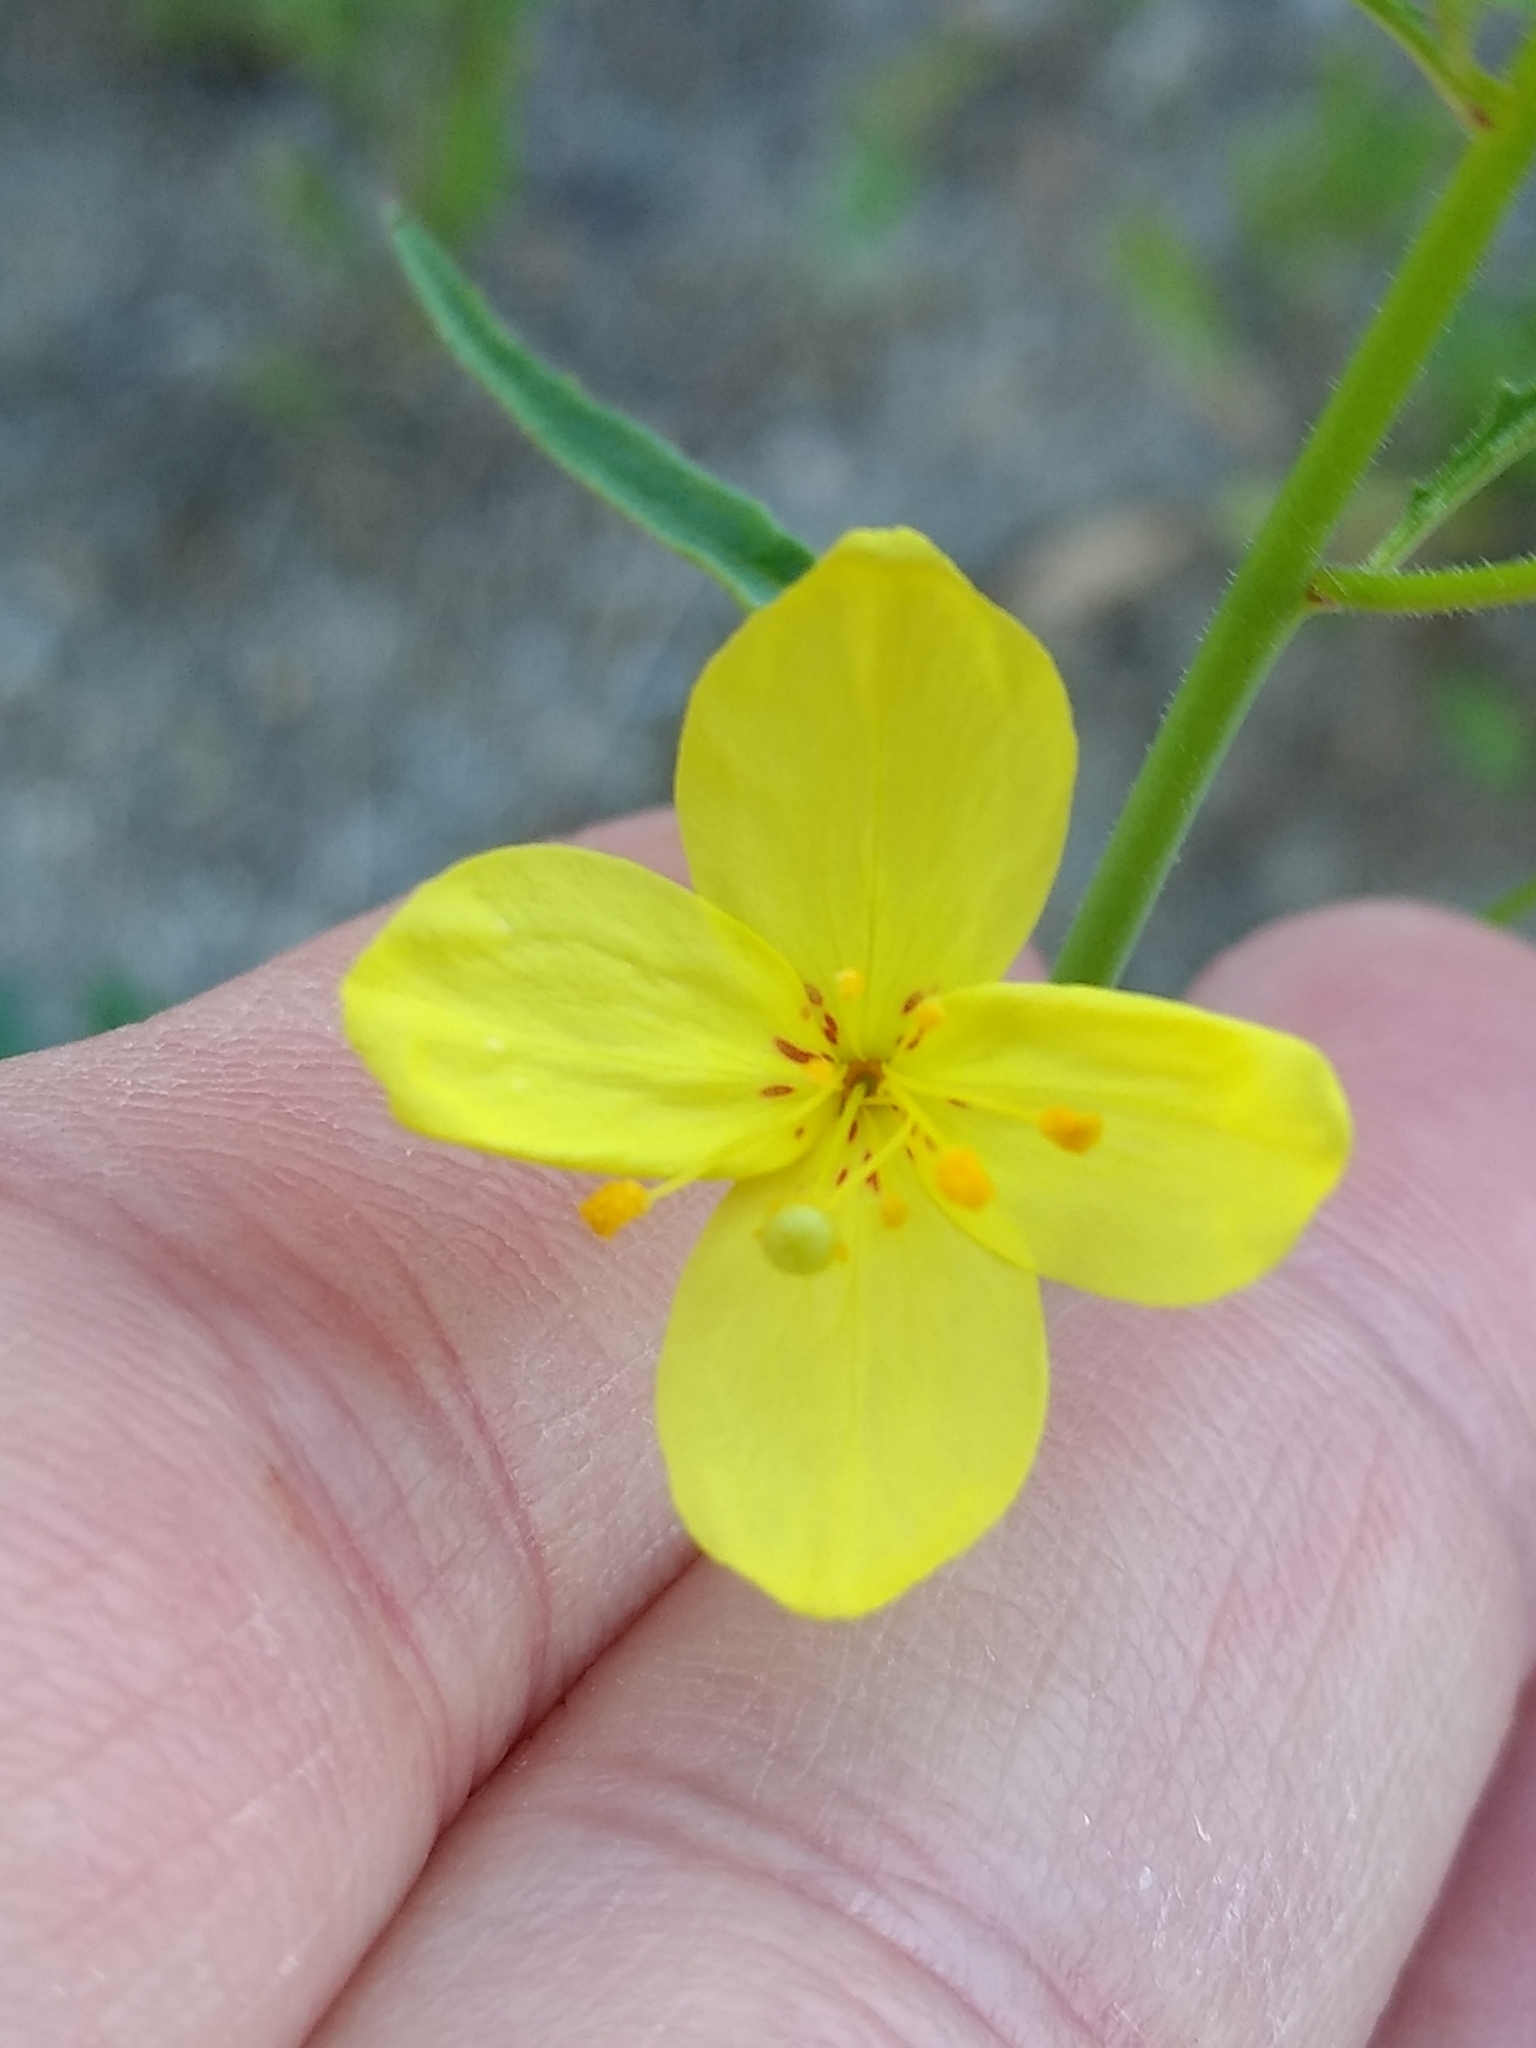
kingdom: Plantae
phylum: Tracheophyta
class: Magnoliopsida
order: Myrtales
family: Onagraceae
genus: Eulobus
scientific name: Eulobus californicus
